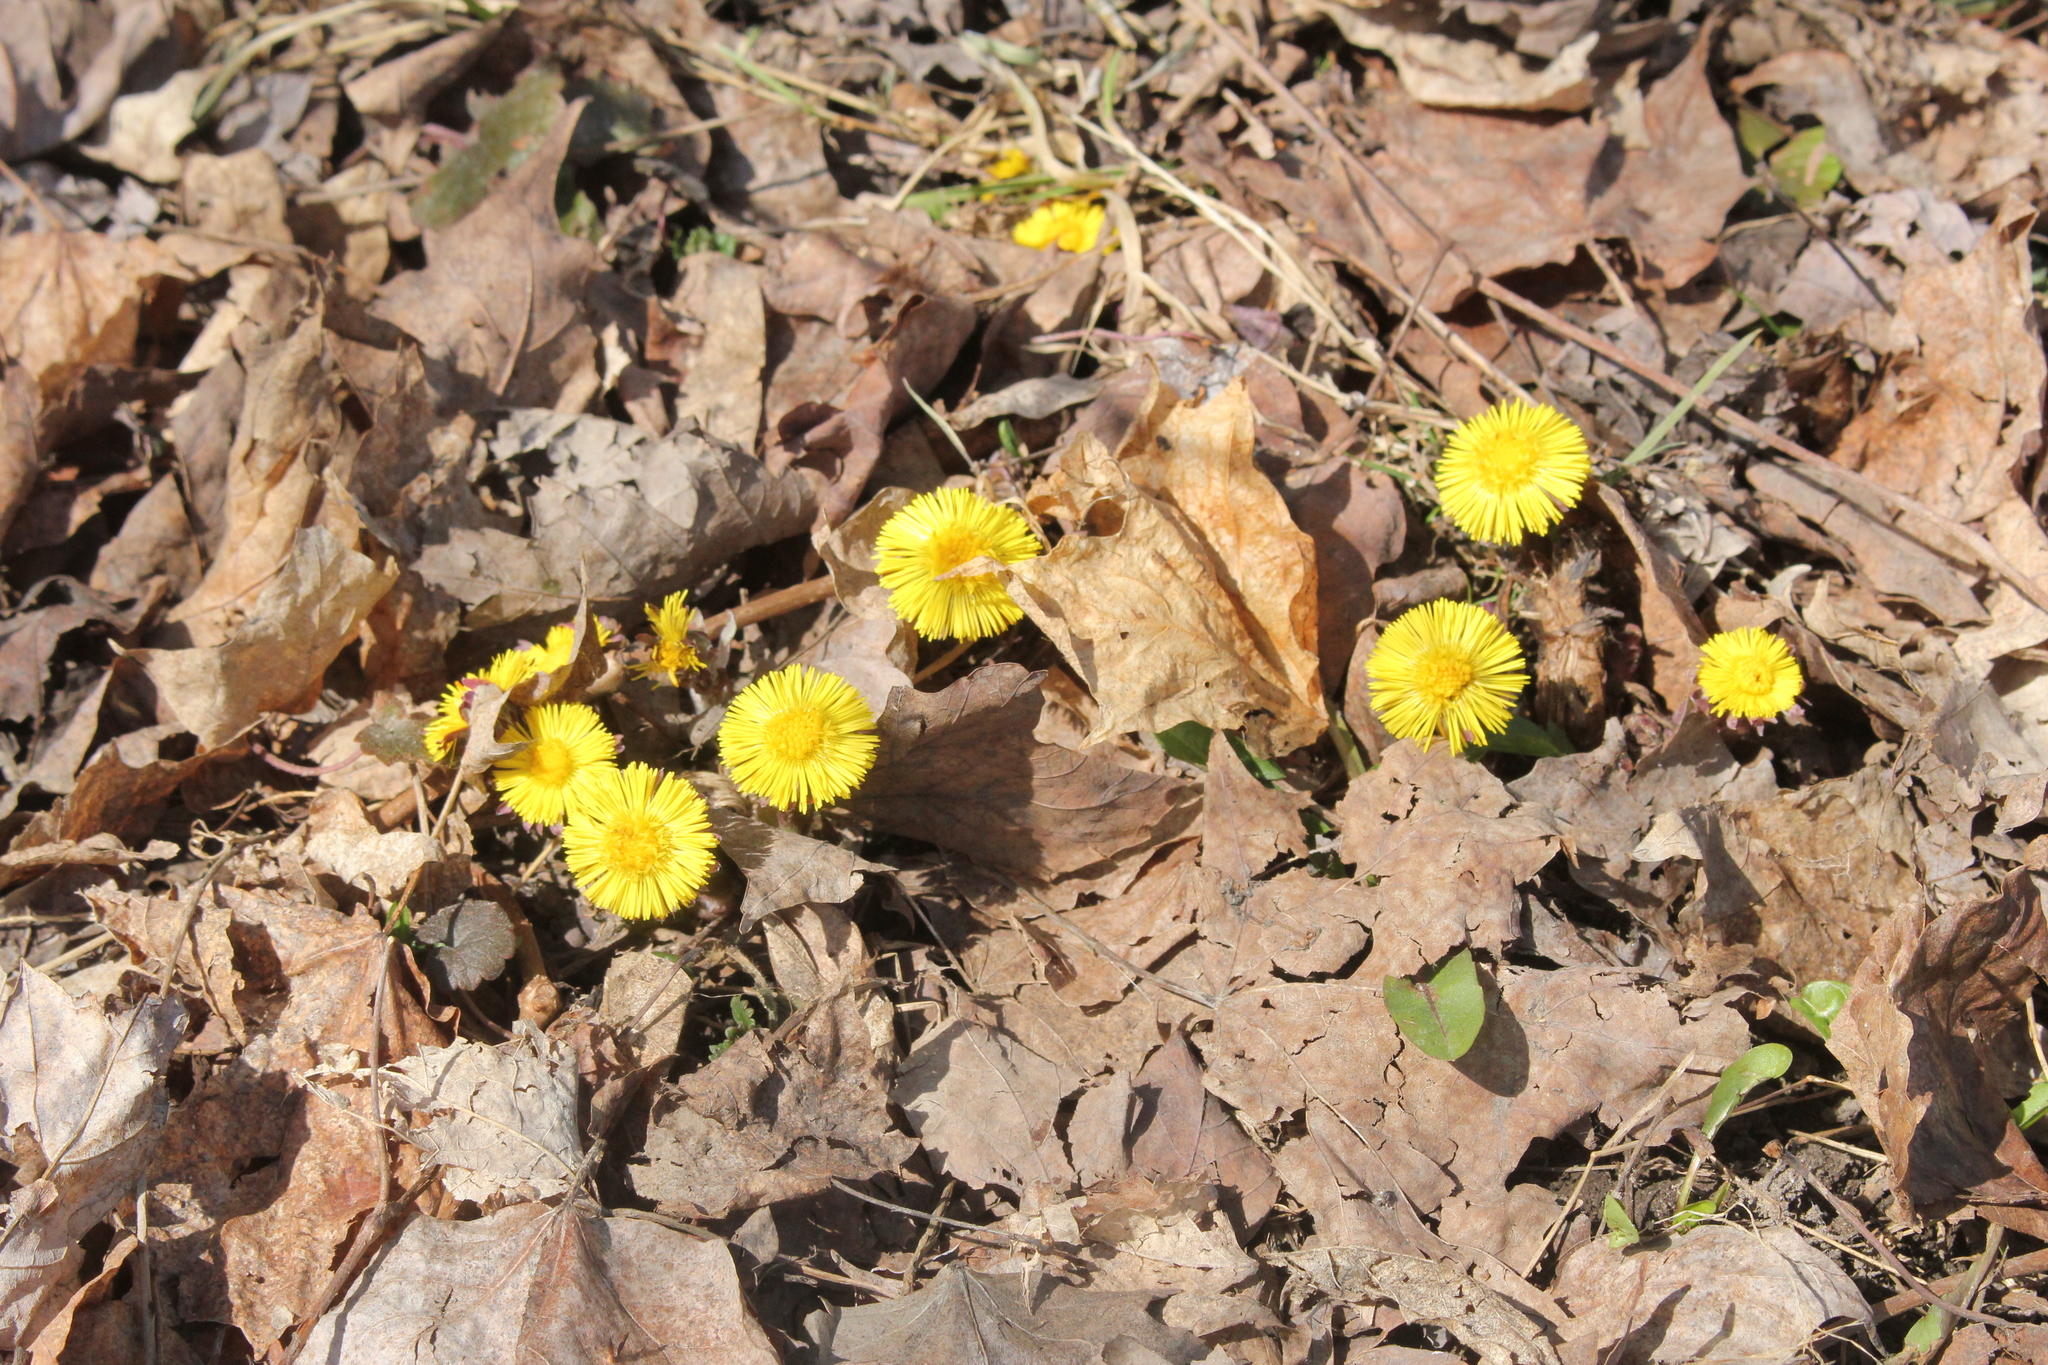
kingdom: Plantae
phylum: Tracheophyta
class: Magnoliopsida
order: Asterales
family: Asteraceae
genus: Tussilago
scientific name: Tussilago farfara
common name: Coltsfoot
